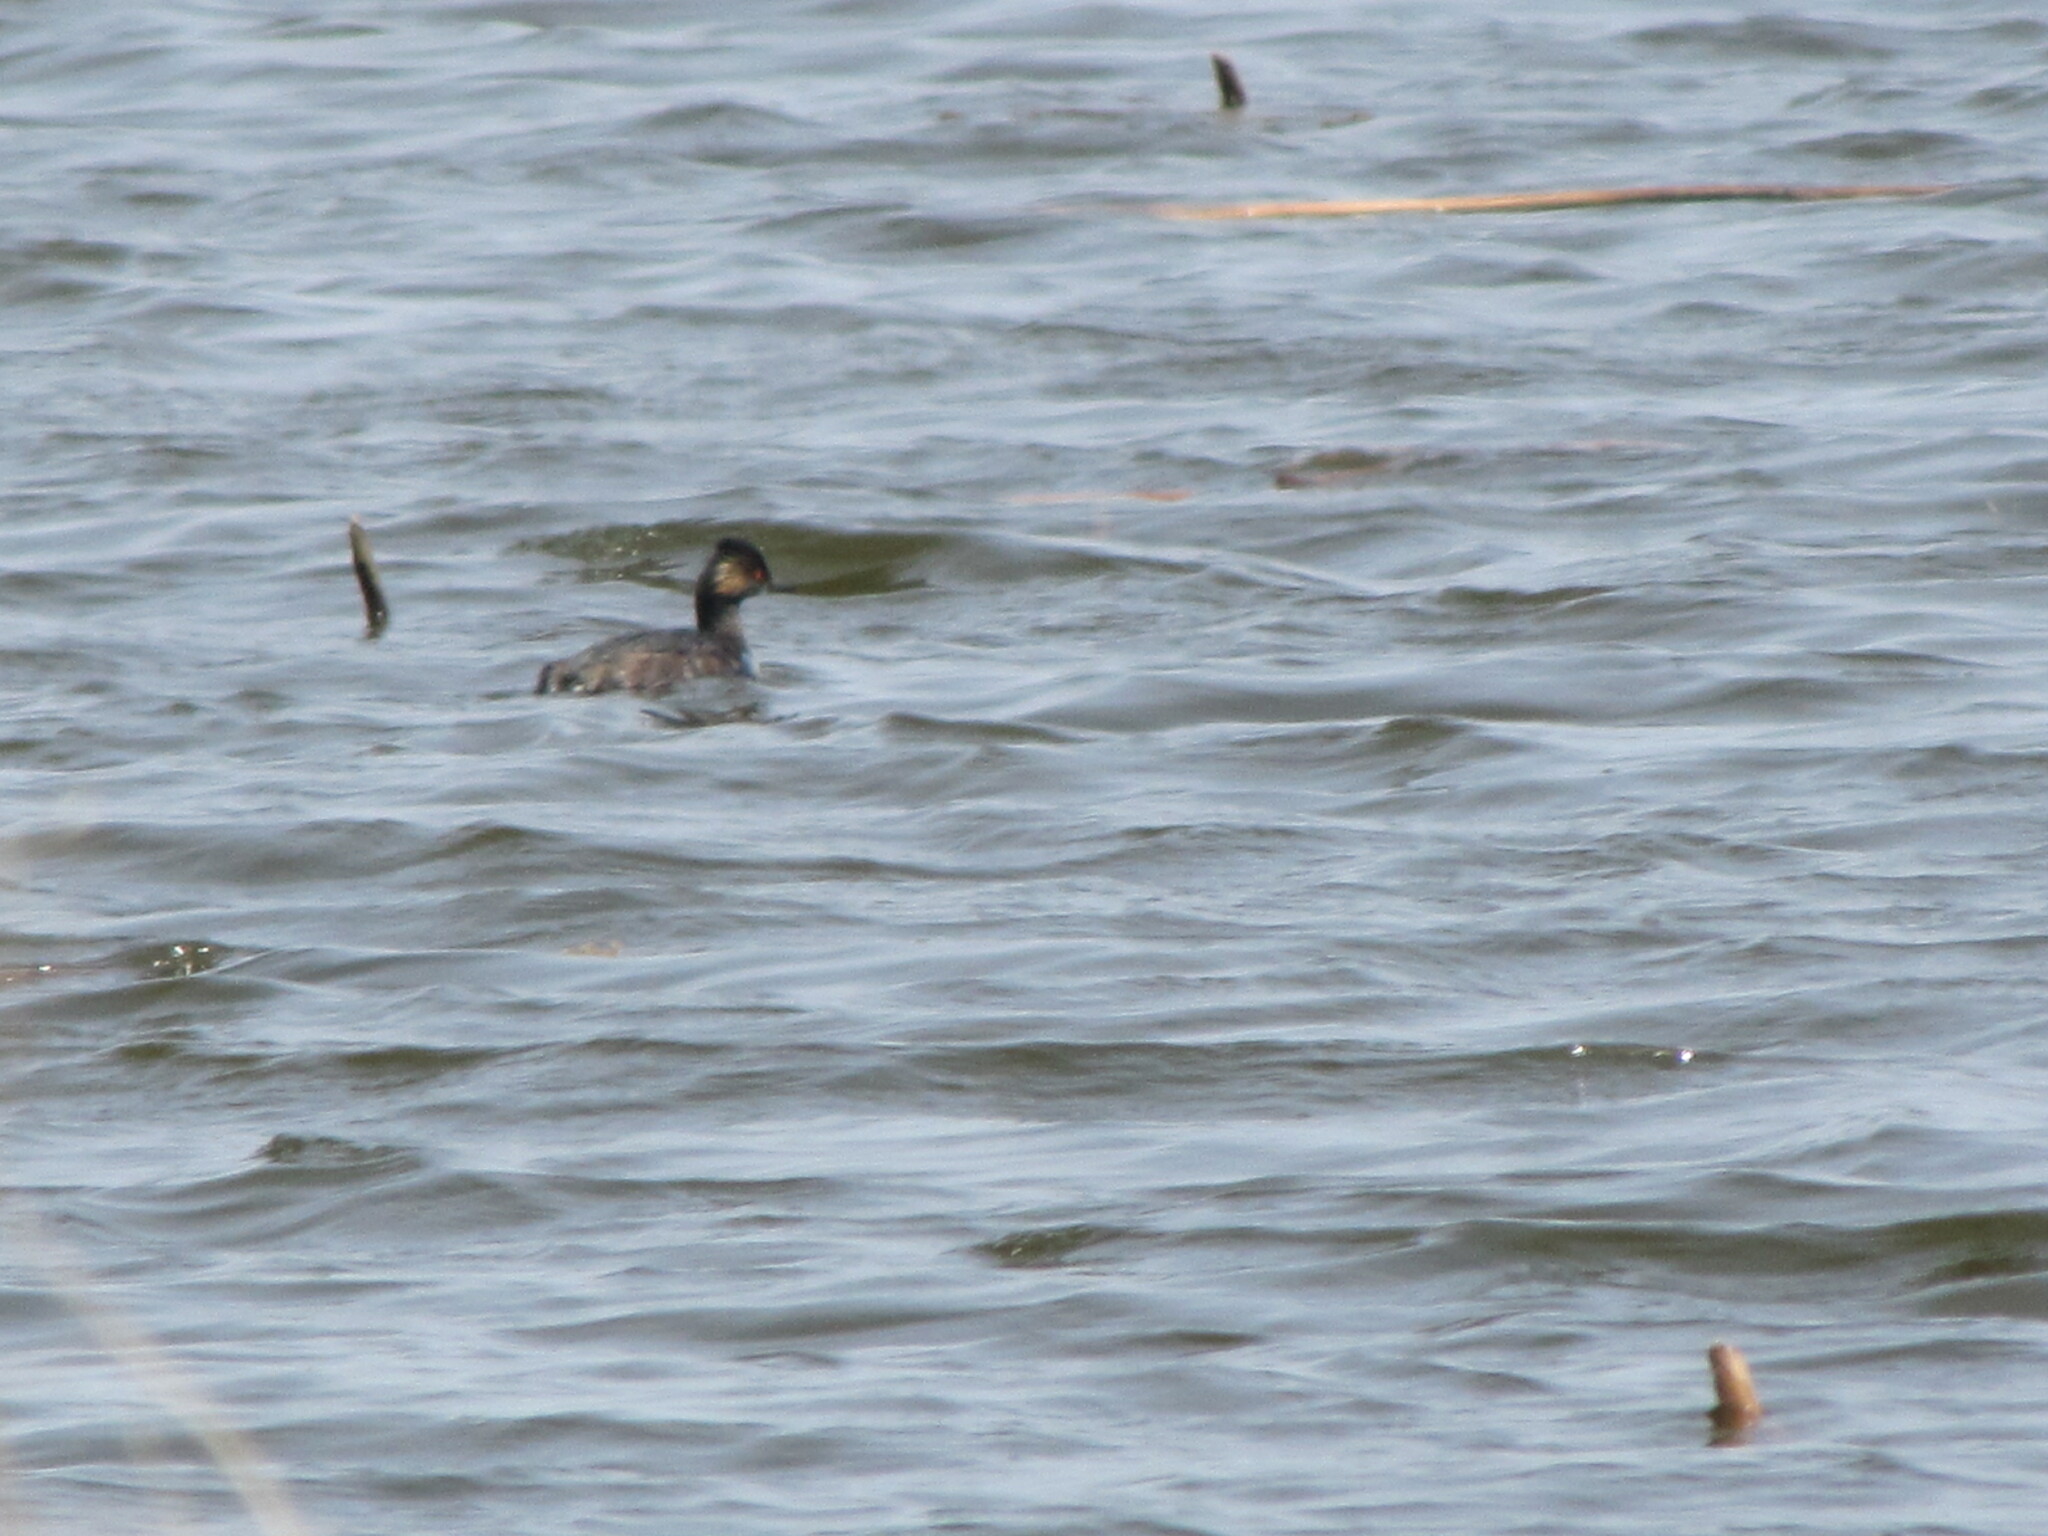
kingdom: Animalia
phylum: Chordata
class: Aves
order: Podicipediformes
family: Podicipedidae
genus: Podiceps
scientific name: Podiceps nigricollis
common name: Black-necked grebe
